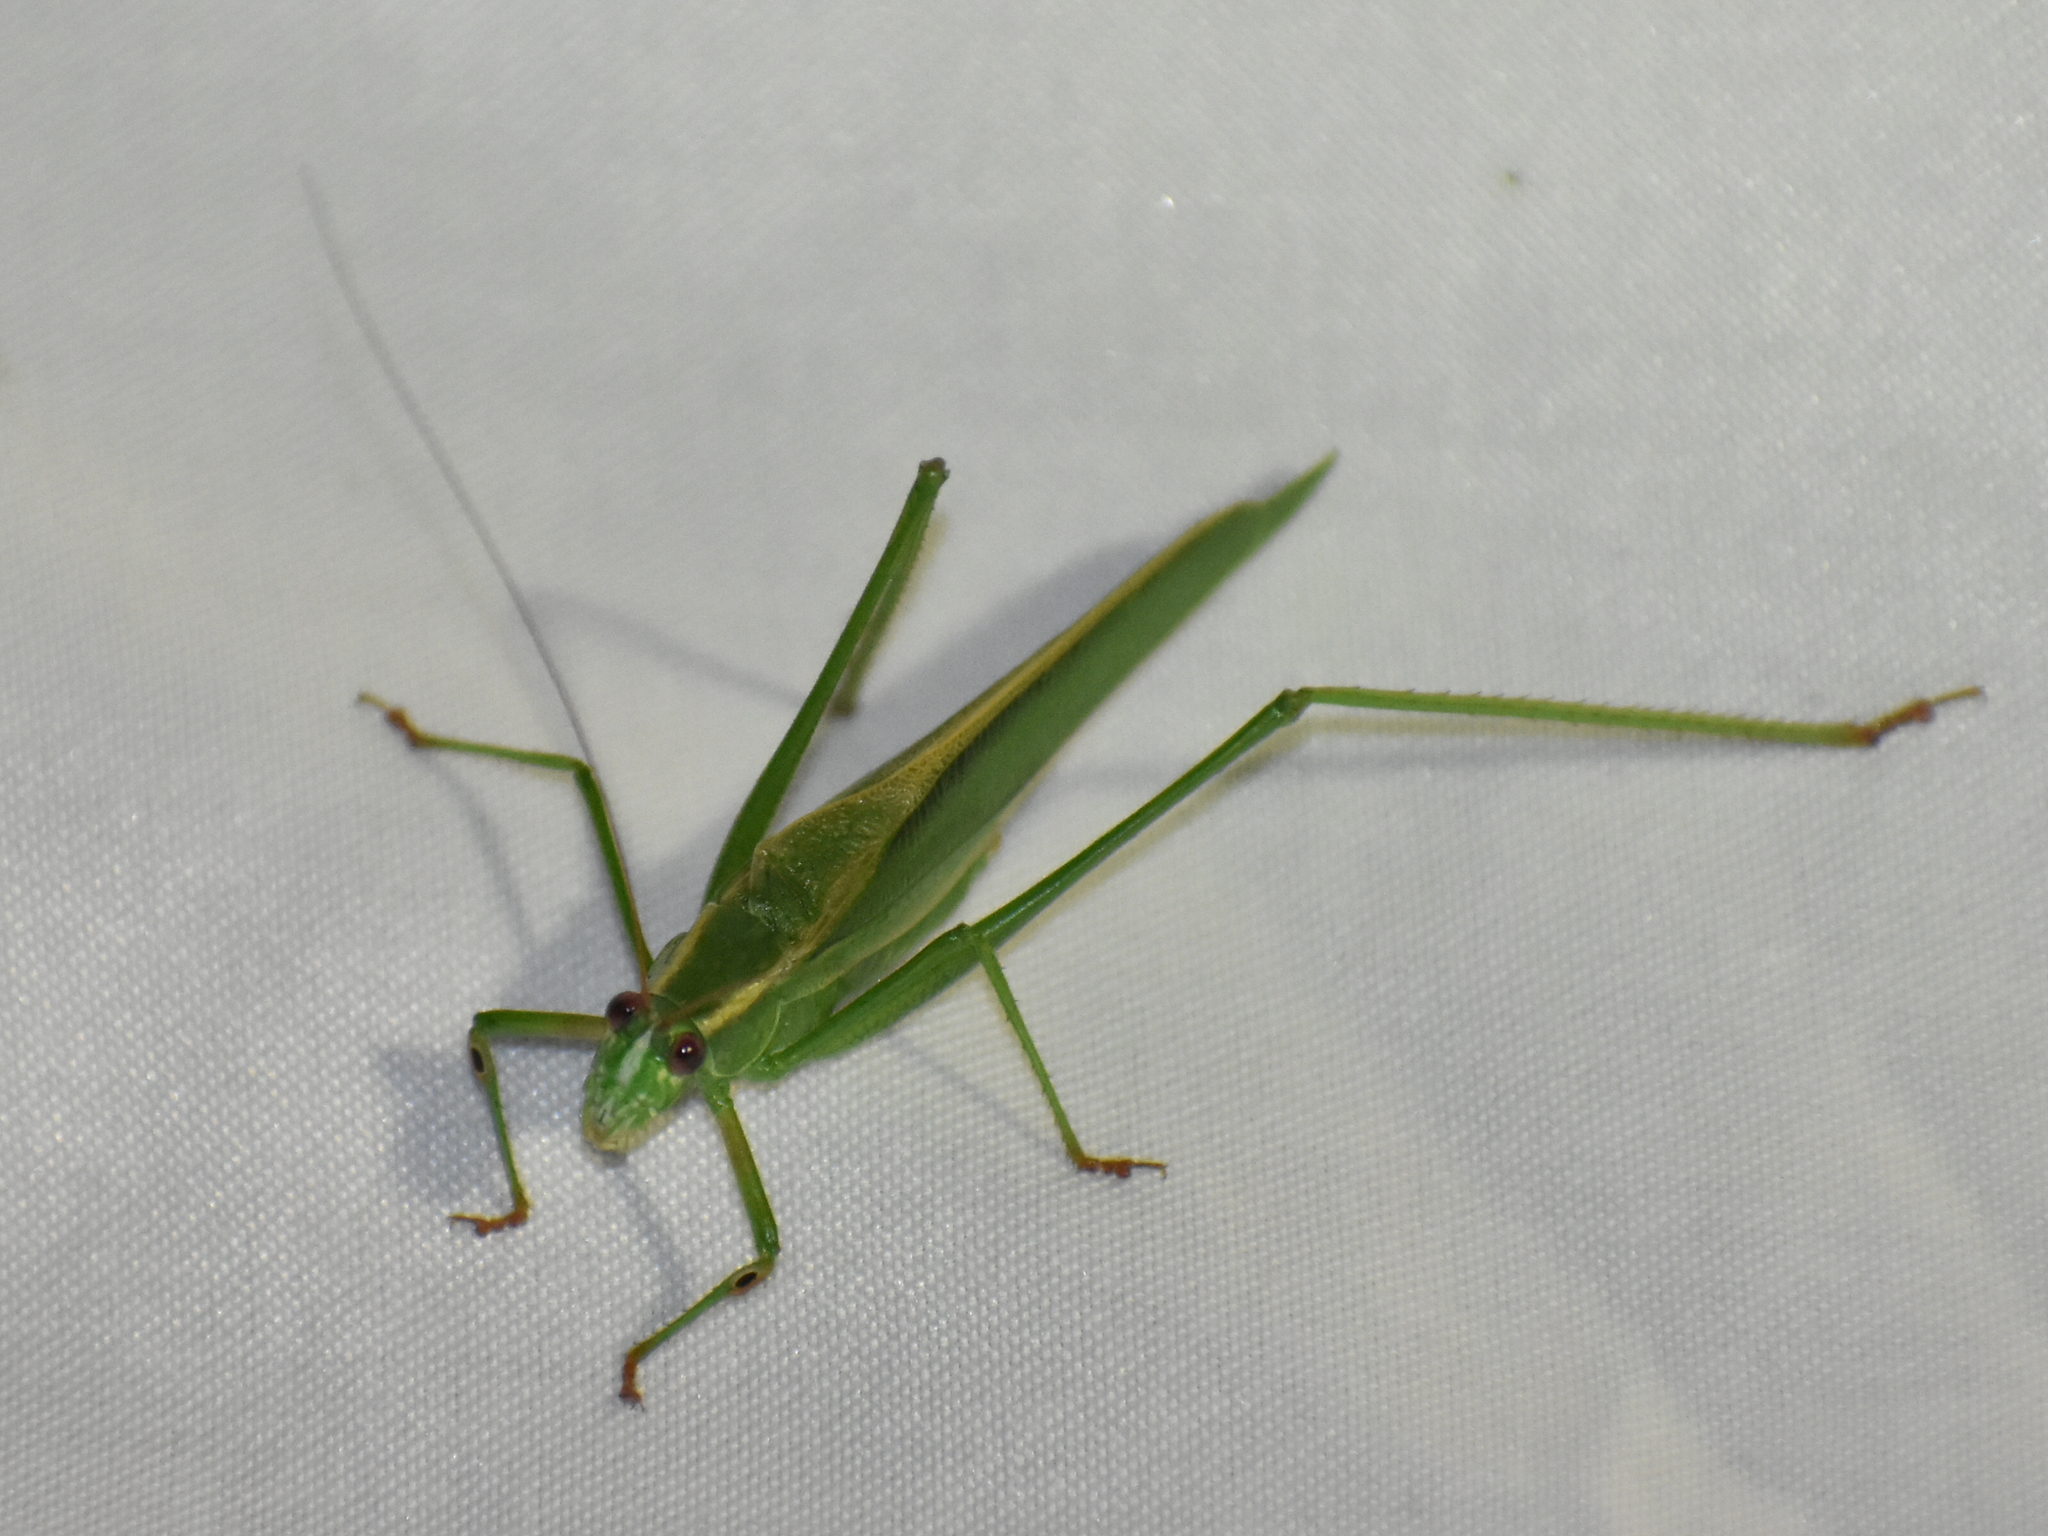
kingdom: Animalia
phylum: Arthropoda
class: Insecta
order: Orthoptera
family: Tettigoniidae
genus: Scudderia
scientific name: Scudderia fasciata
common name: Treetop bush katydid
